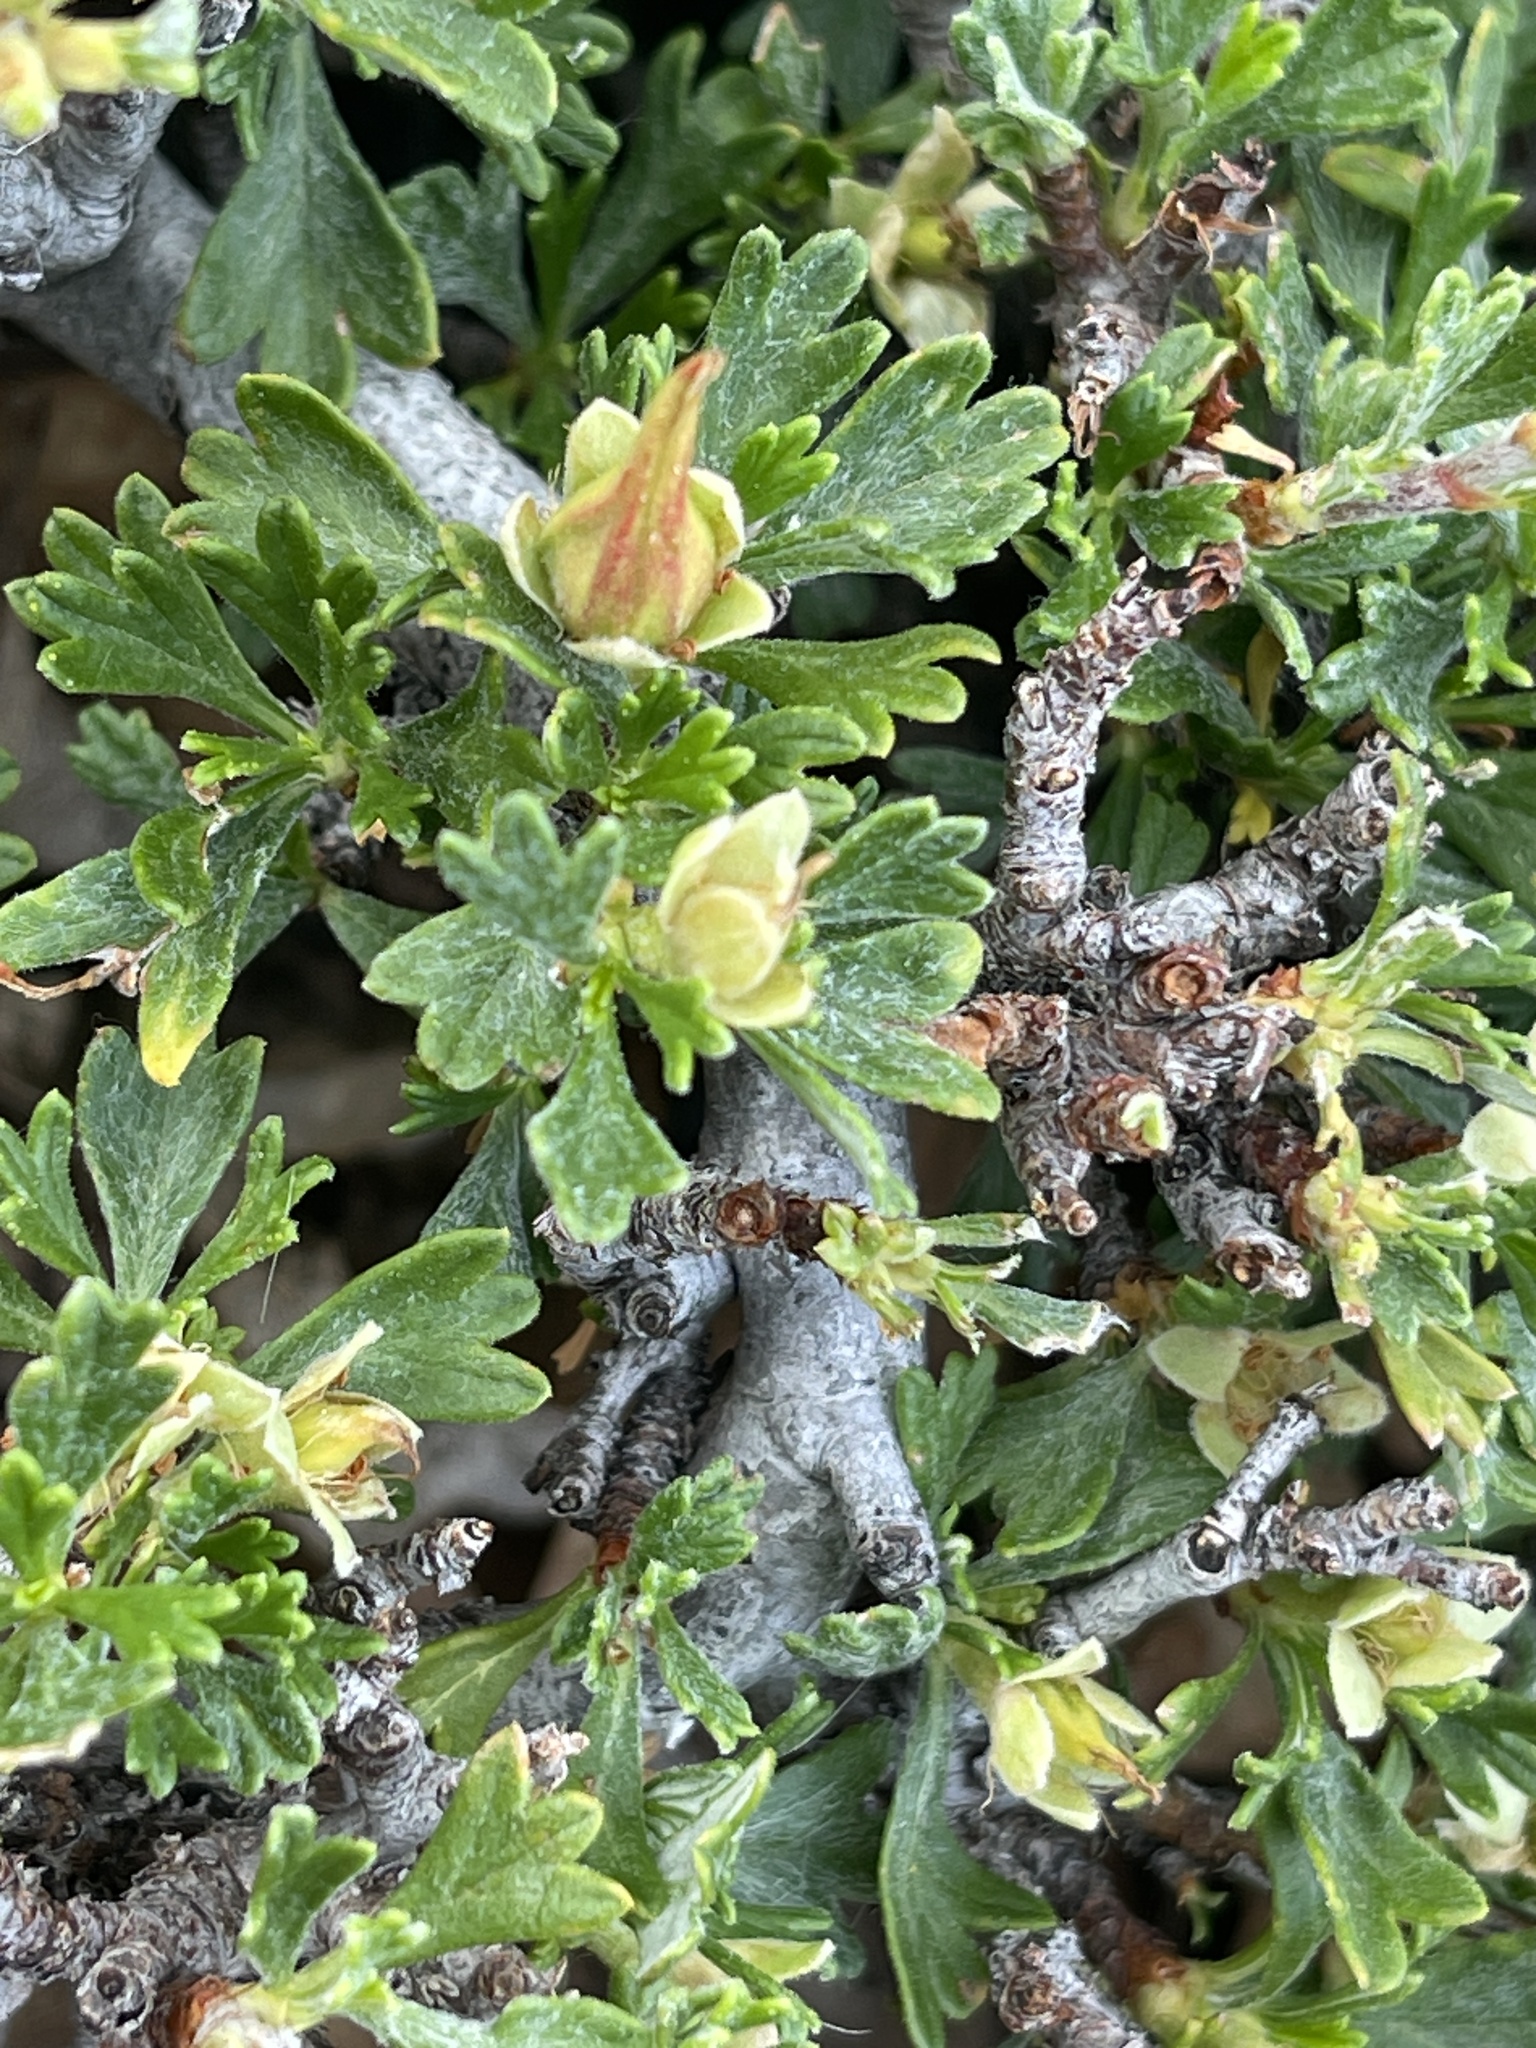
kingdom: Plantae
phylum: Tracheophyta
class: Magnoliopsida
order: Rosales
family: Rosaceae
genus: Purshia
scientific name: Purshia tridentata
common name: Antelope bitterbrush
